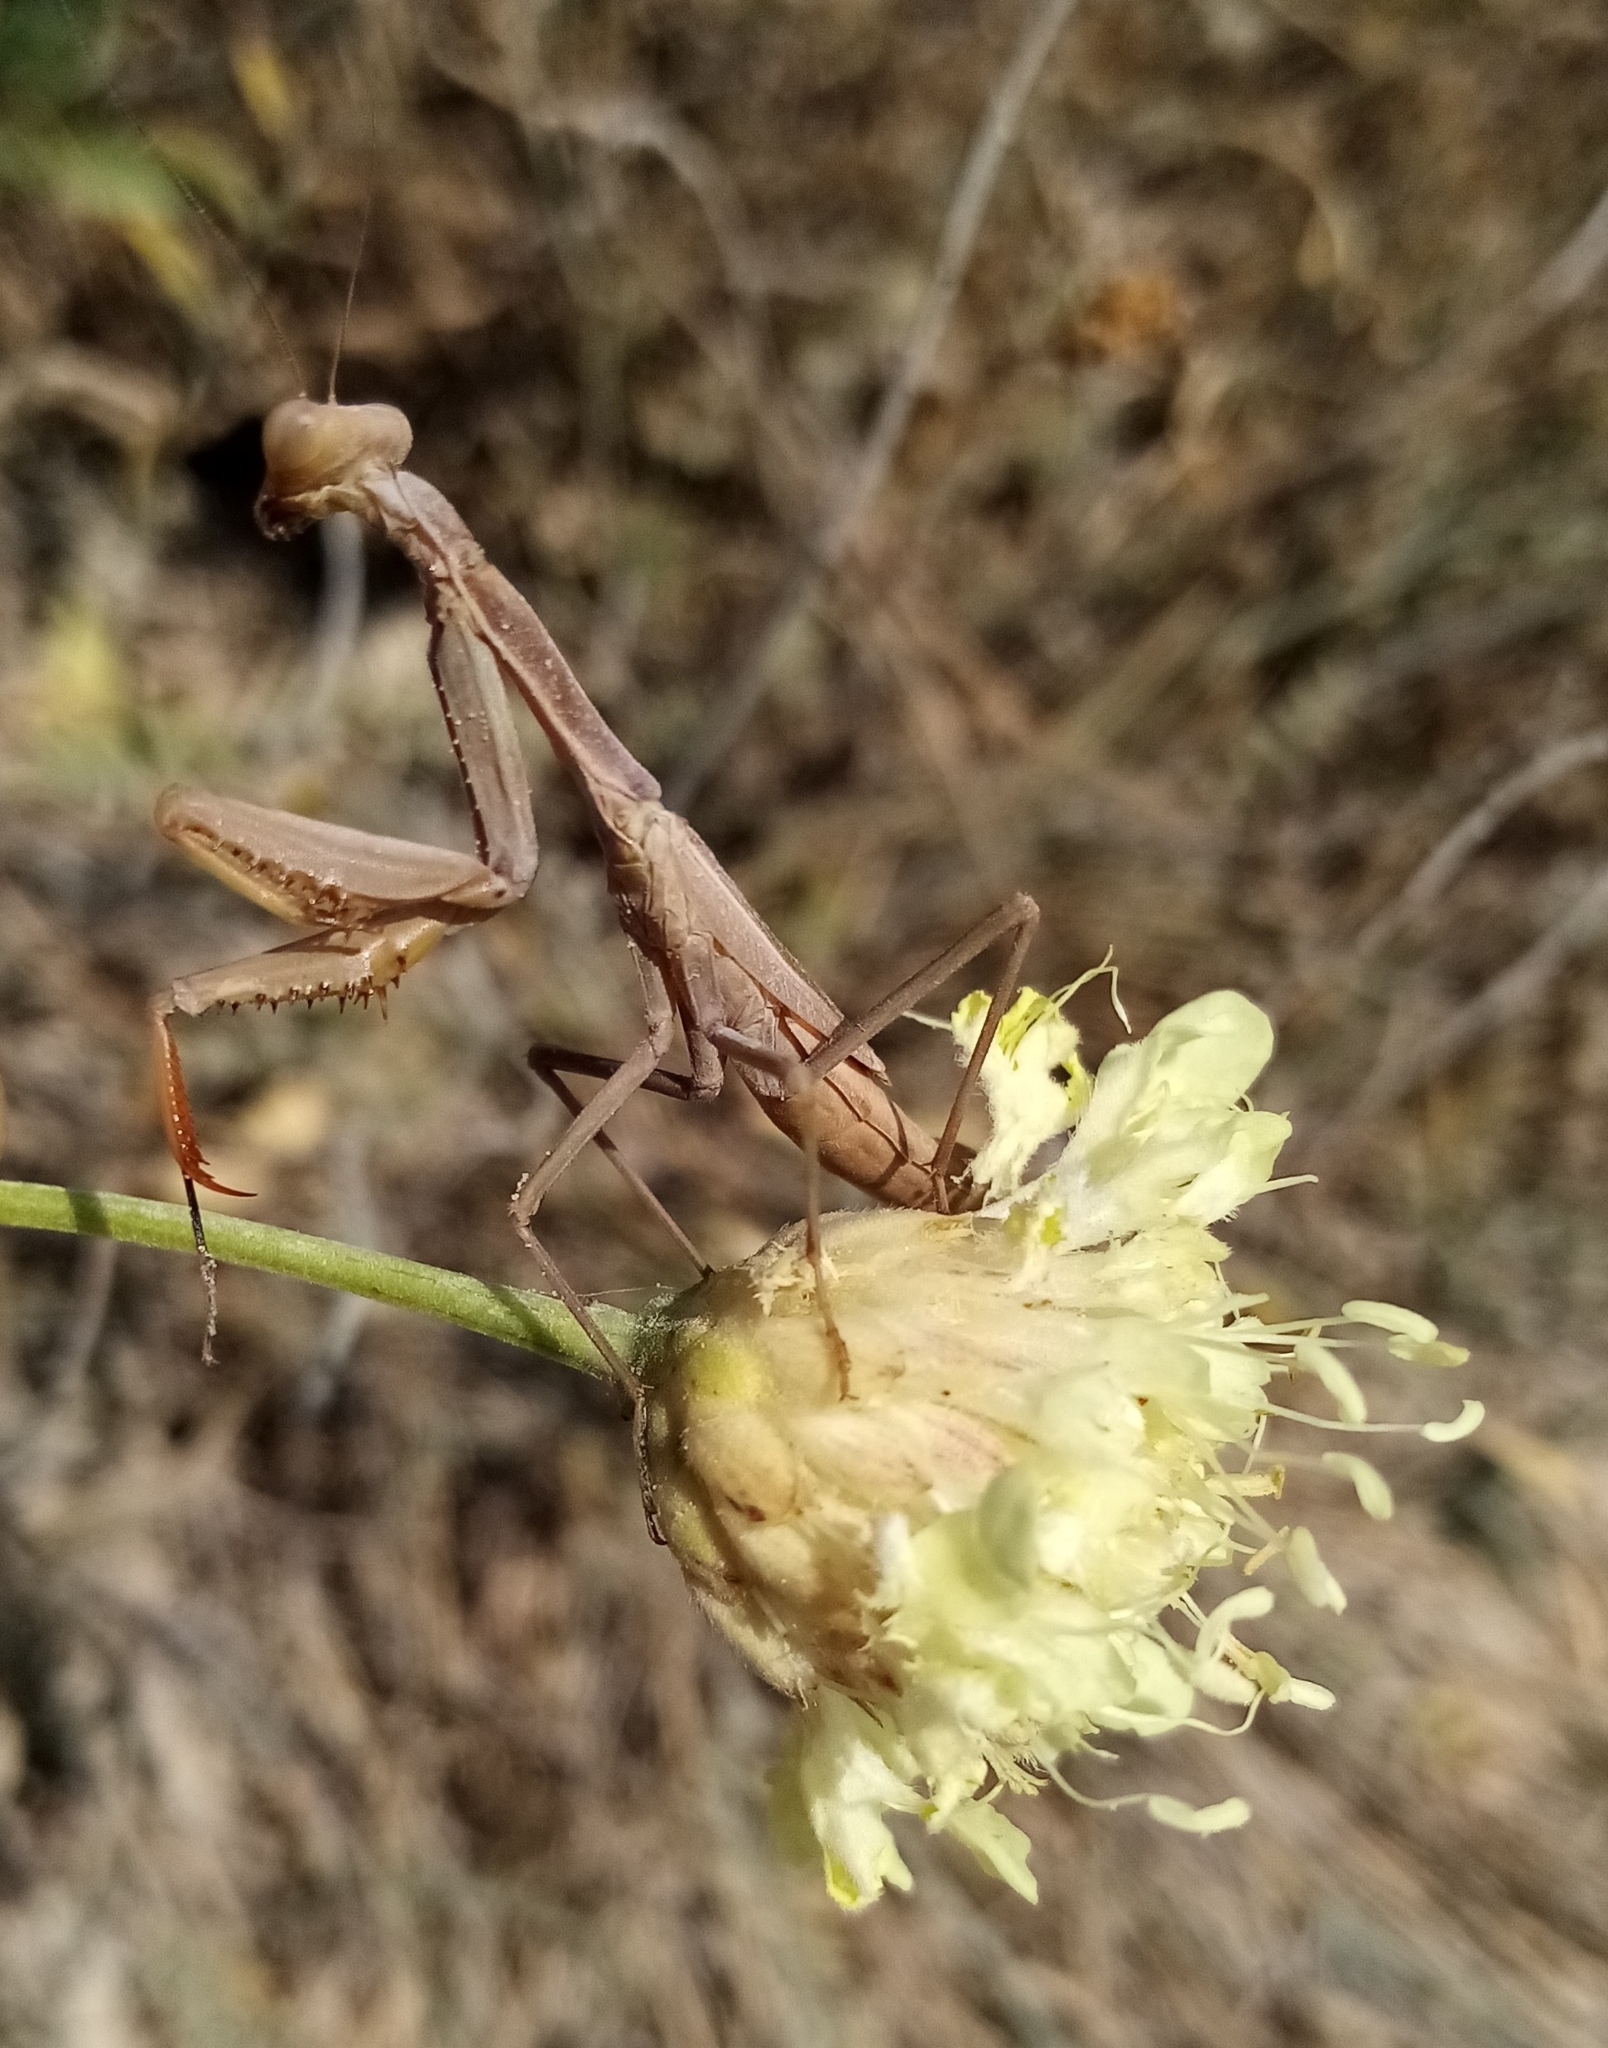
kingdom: Animalia
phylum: Arthropoda
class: Insecta
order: Mantodea
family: Eremiaphilidae
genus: Iris
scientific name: Iris polystictica
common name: Dot-winged mantis
